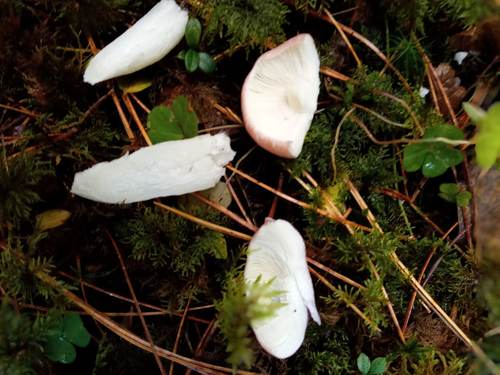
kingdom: Fungi
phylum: Basidiomycota
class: Agaricomycetes
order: Russulales
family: Russulaceae
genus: Russula
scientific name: Russula
